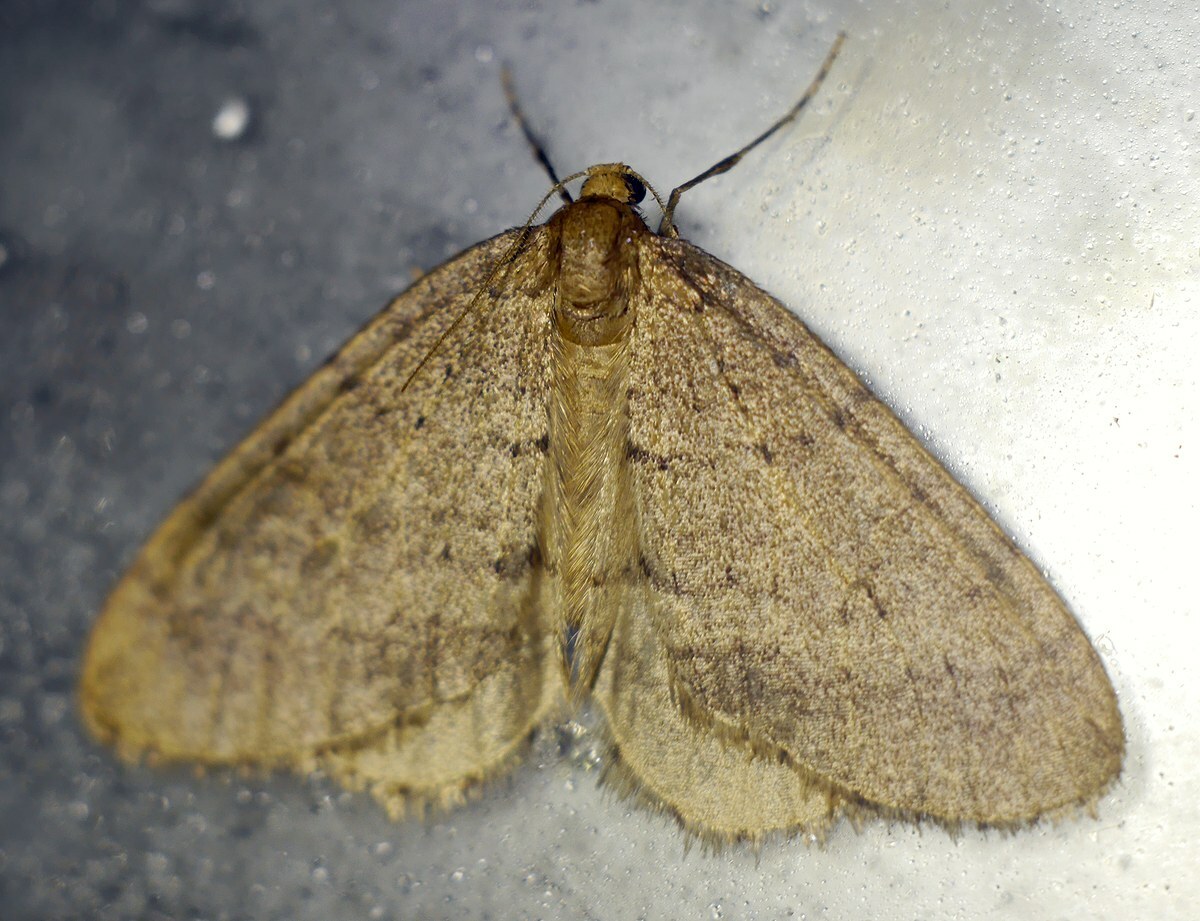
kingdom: Animalia
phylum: Arthropoda
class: Insecta
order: Lepidoptera
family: Geometridae
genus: Operophtera
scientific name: Operophtera brumata
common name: Winter moth
